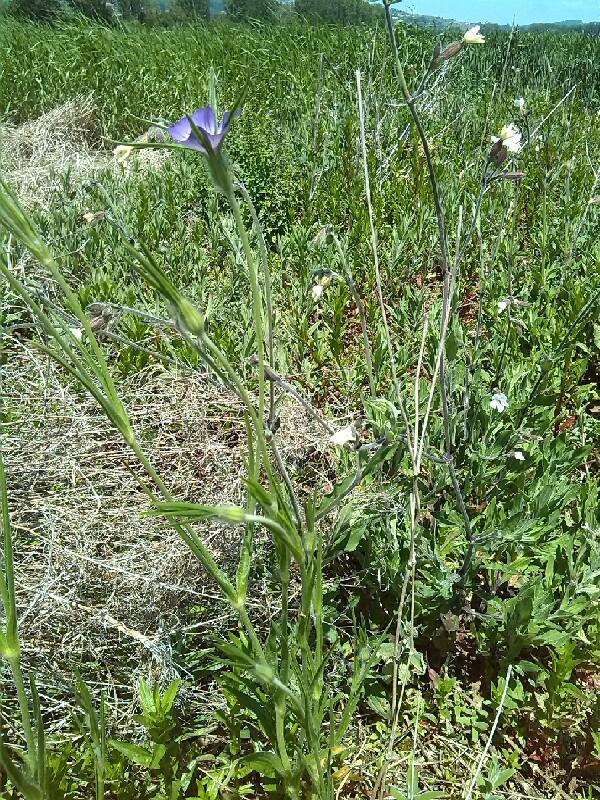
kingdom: Plantae
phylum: Tracheophyta
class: Magnoliopsida
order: Caryophyllales
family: Caryophyllaceae
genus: Agrostemma
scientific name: Agrostemma githago
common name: Common corncockle
